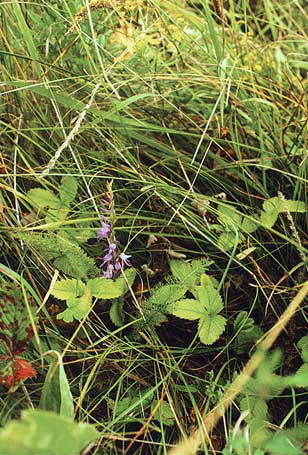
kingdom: Plantae
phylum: Tracheophyta
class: Magnoliopsida
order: Rosales
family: Rosaceae
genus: Fragaria
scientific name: Fragaria viridis
